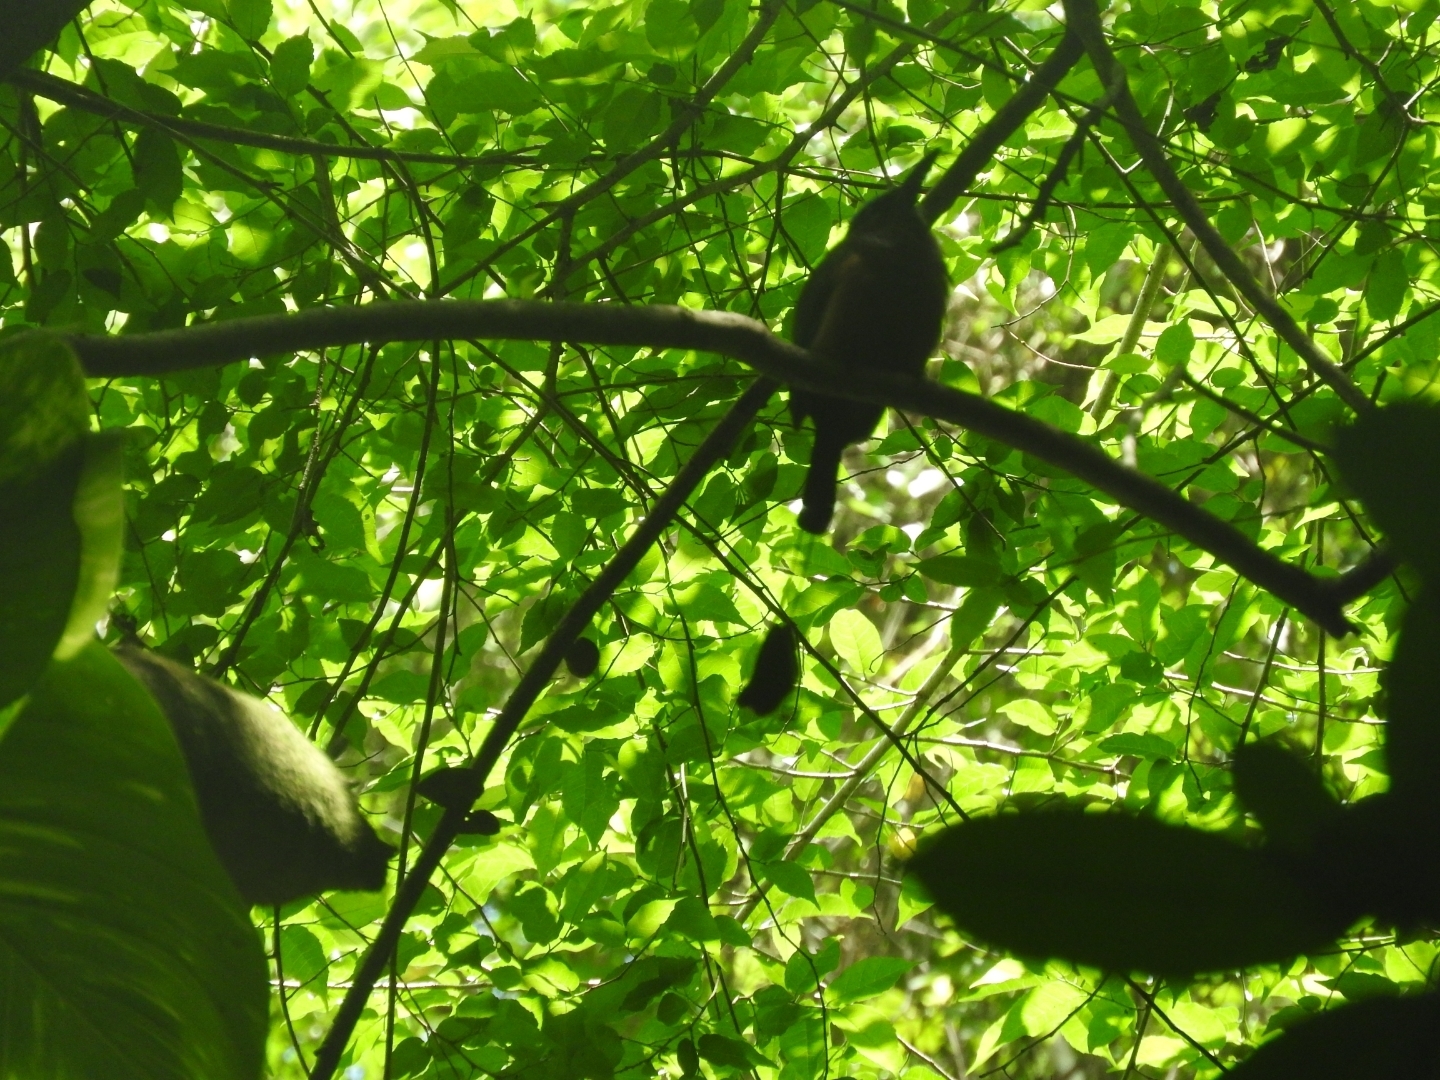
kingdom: Animalia
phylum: Chordata
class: Aves
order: Coraciiformes
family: Momotidae
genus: Eumomota
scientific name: Eumomota superciliosa
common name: Turquoise-browed motmot
